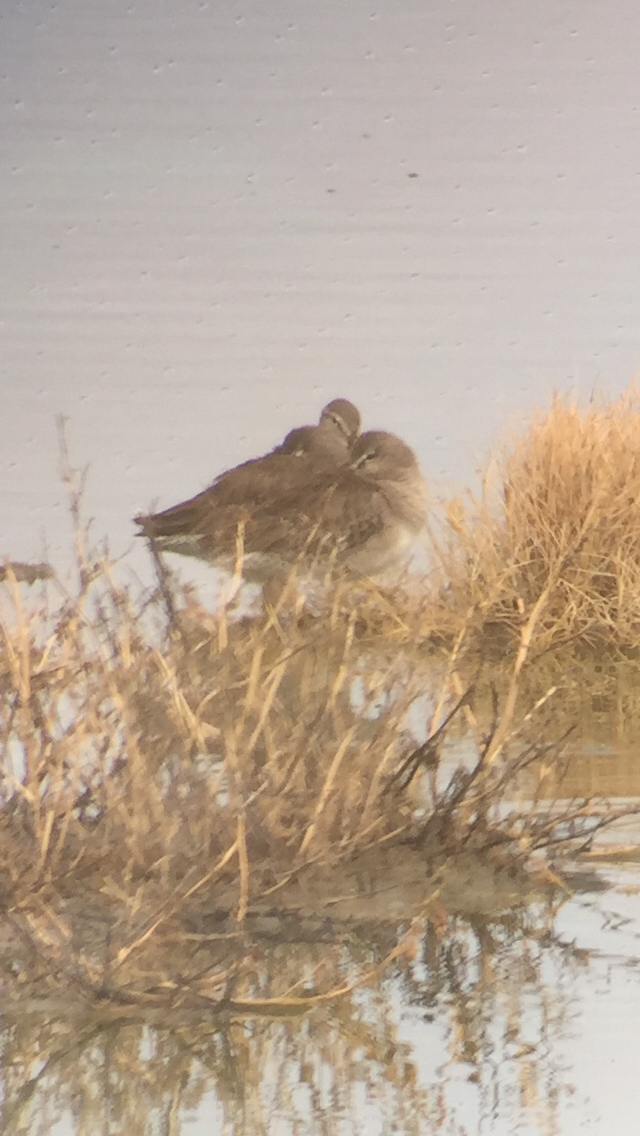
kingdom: Animalia
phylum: Chordata
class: Aves
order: Charadriiformes
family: Scolopacidae
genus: Limnodromus
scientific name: Limnodromus scolopaceus
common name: Long-billed dowitcher
